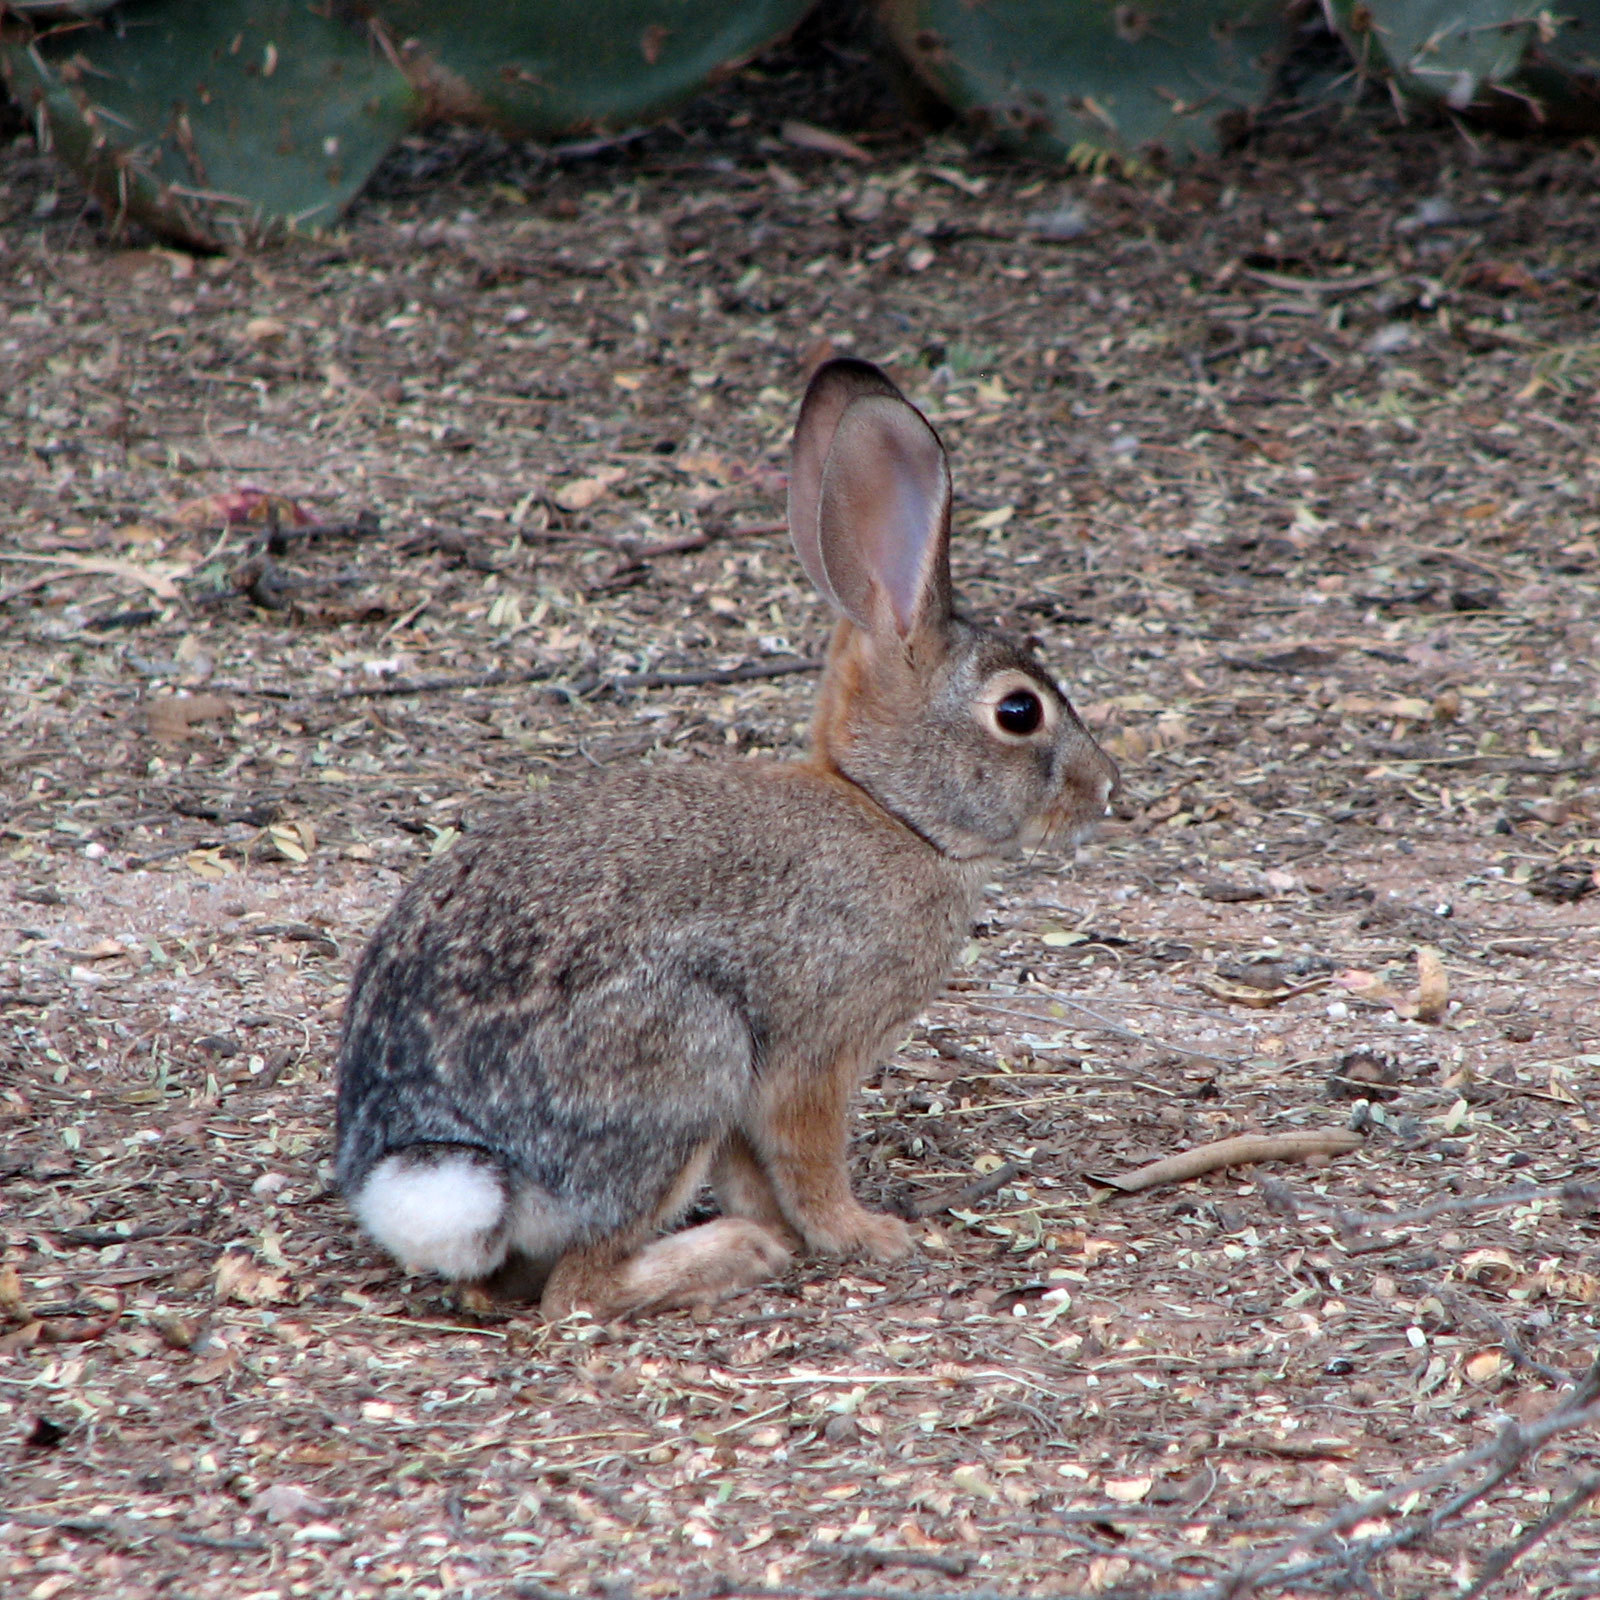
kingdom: Animalia
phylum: Chordata
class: Mammalia
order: Lagomorpha
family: Leporidae
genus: Sylvilagus
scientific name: Sylvilagus audubonii
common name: Desert cottontail
